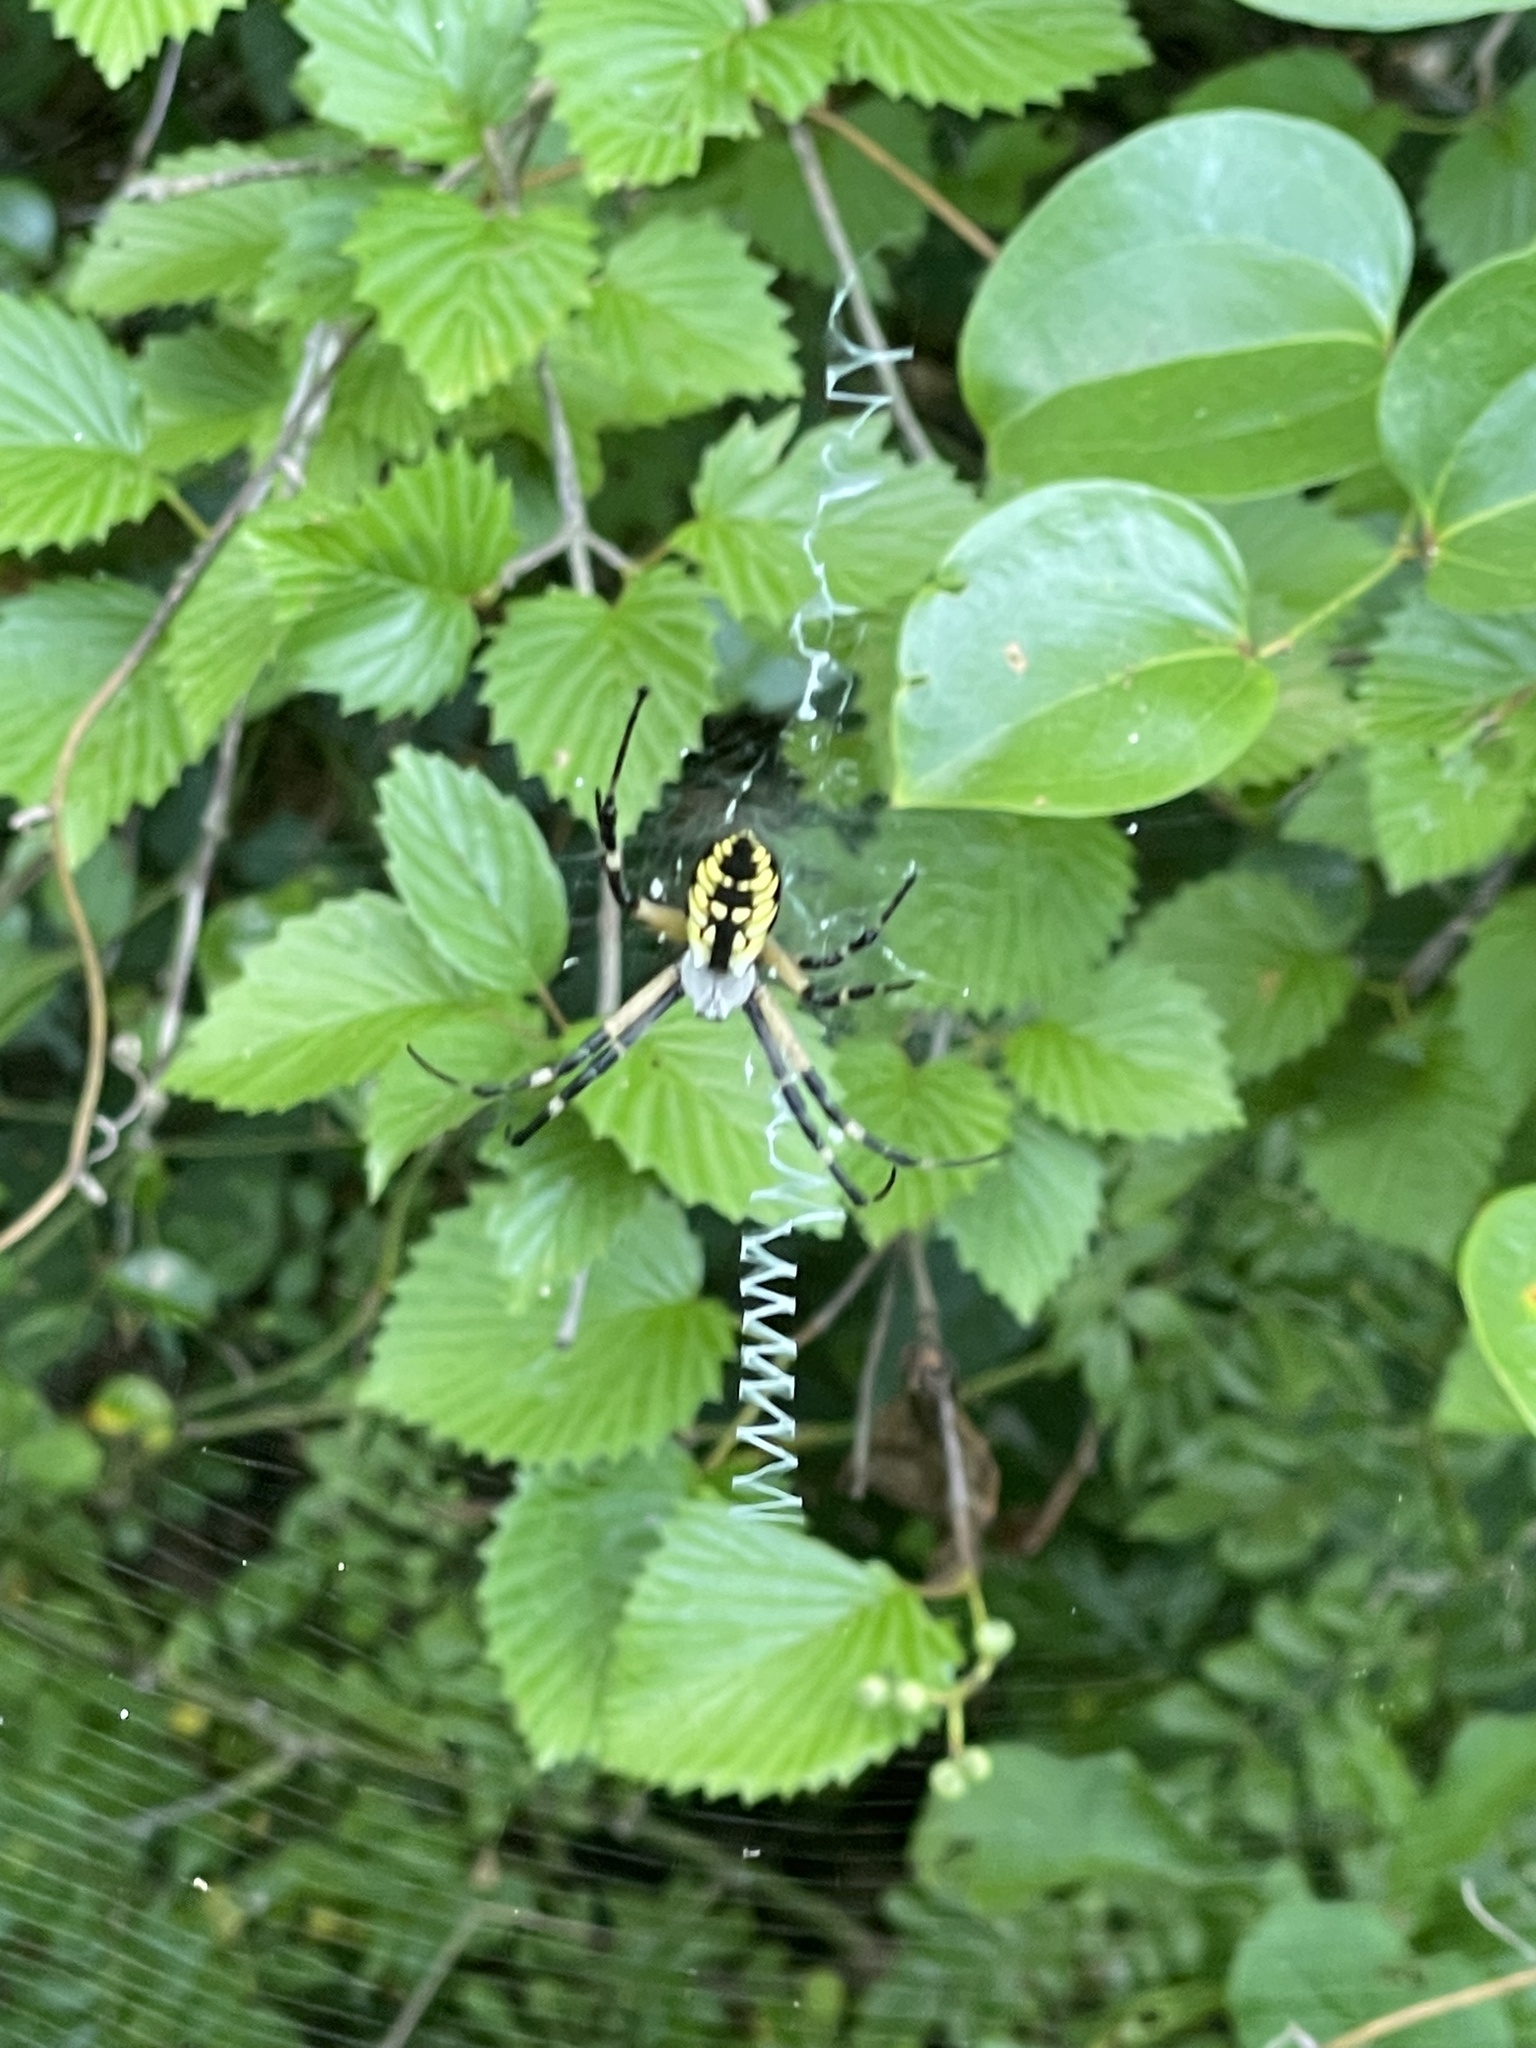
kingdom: Animalia
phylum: Arthropoda
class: Arachnida
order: Araneae
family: Araneidae
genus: Argiope
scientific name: Argiope aurantia
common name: Orb weavers
